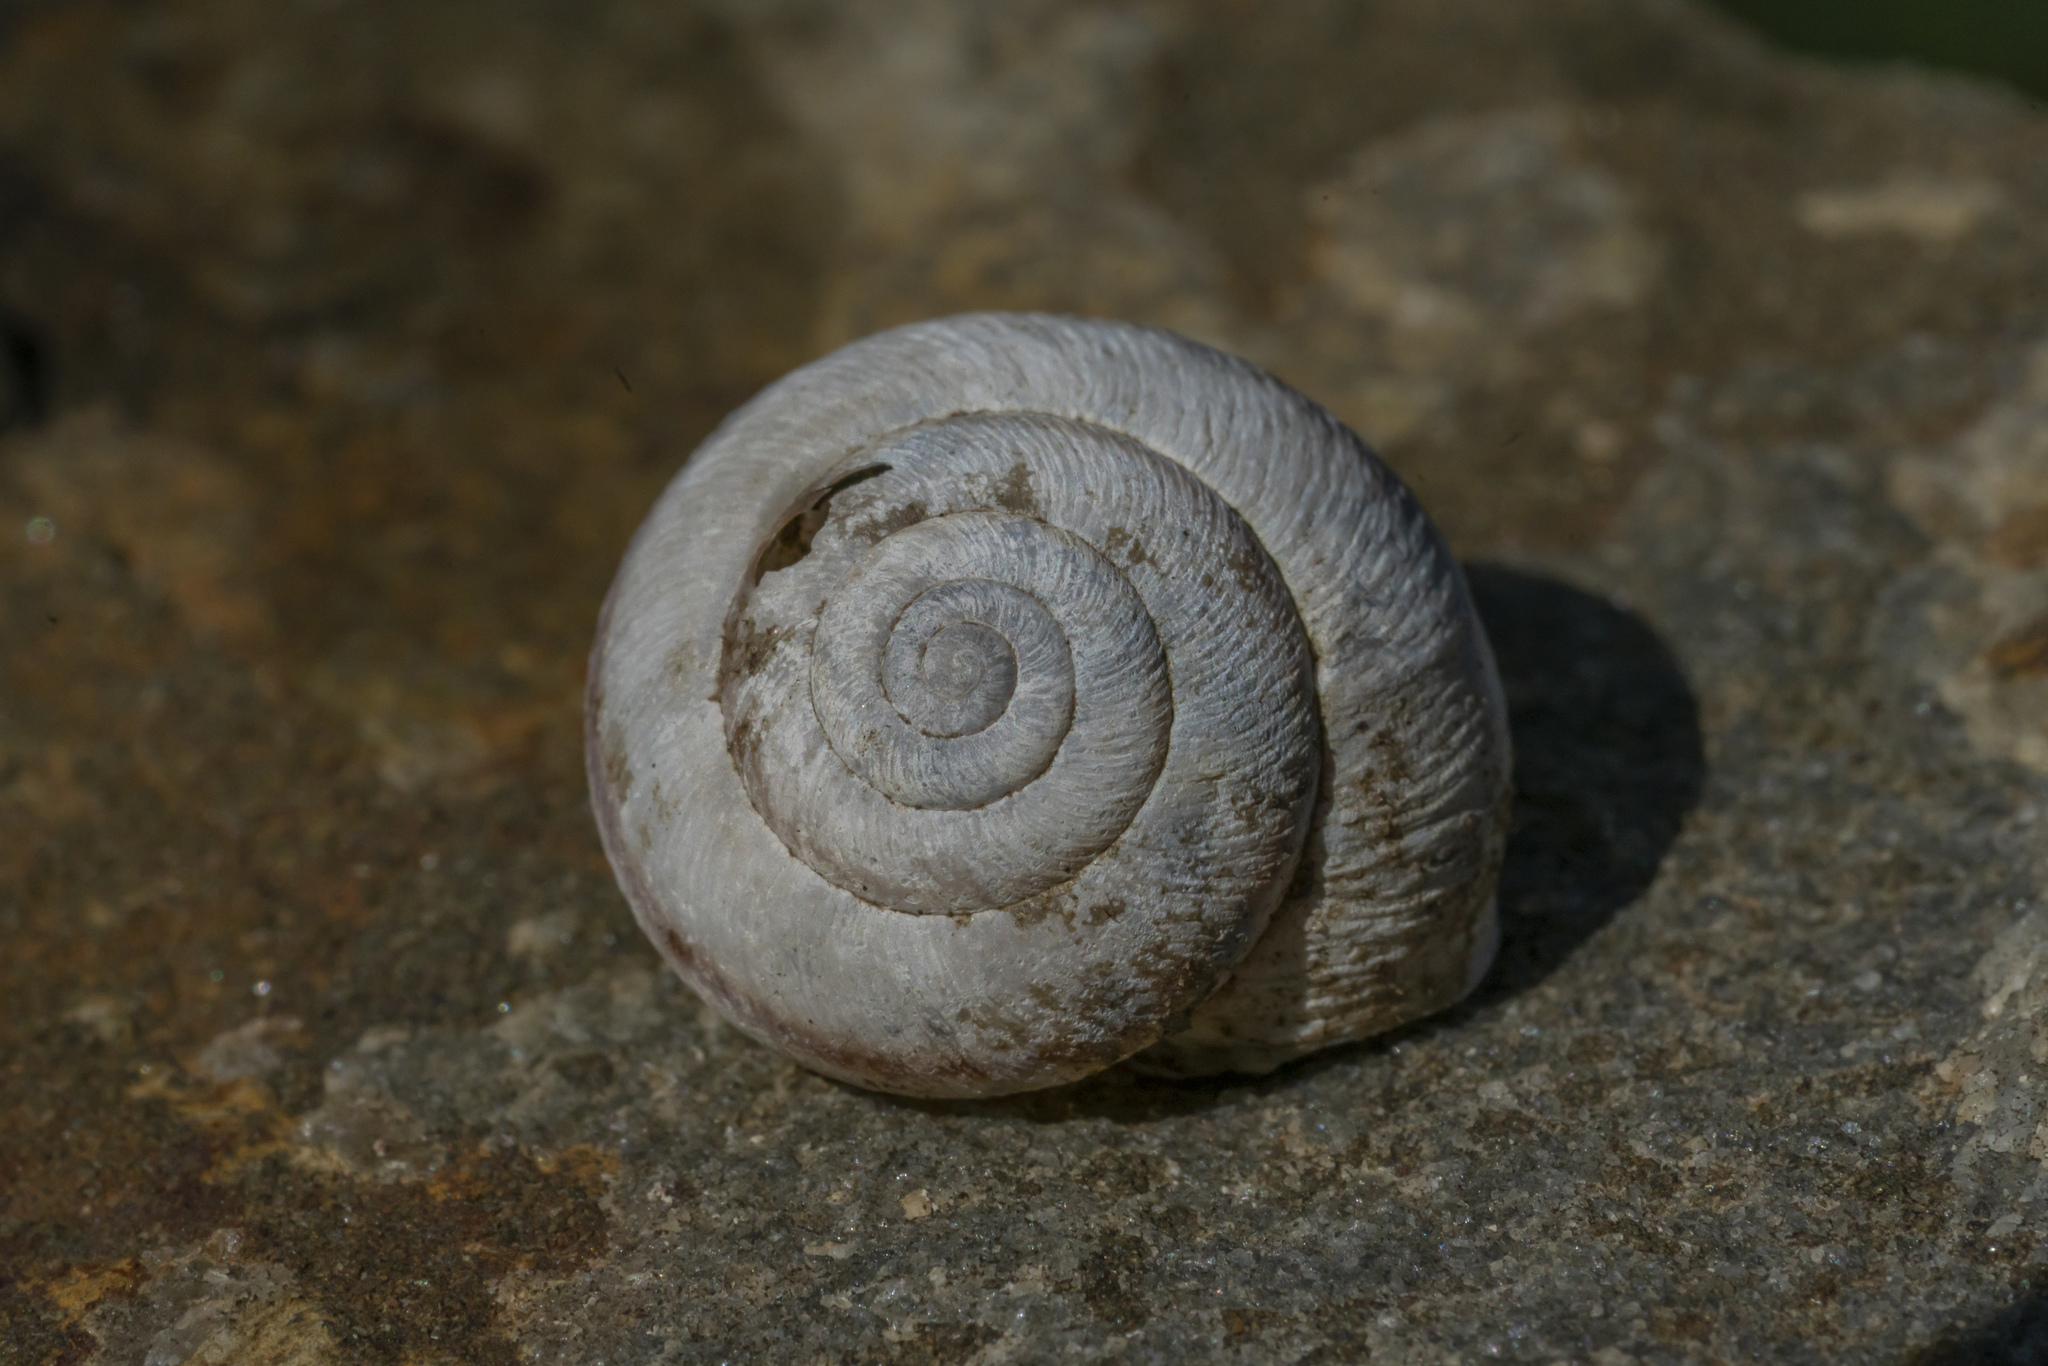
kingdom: Animalia
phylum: Mollusca
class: Gastropoda
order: Stylommatophora
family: Hygromiidae
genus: Metafruticicola
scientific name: Metafruticicola pellita
